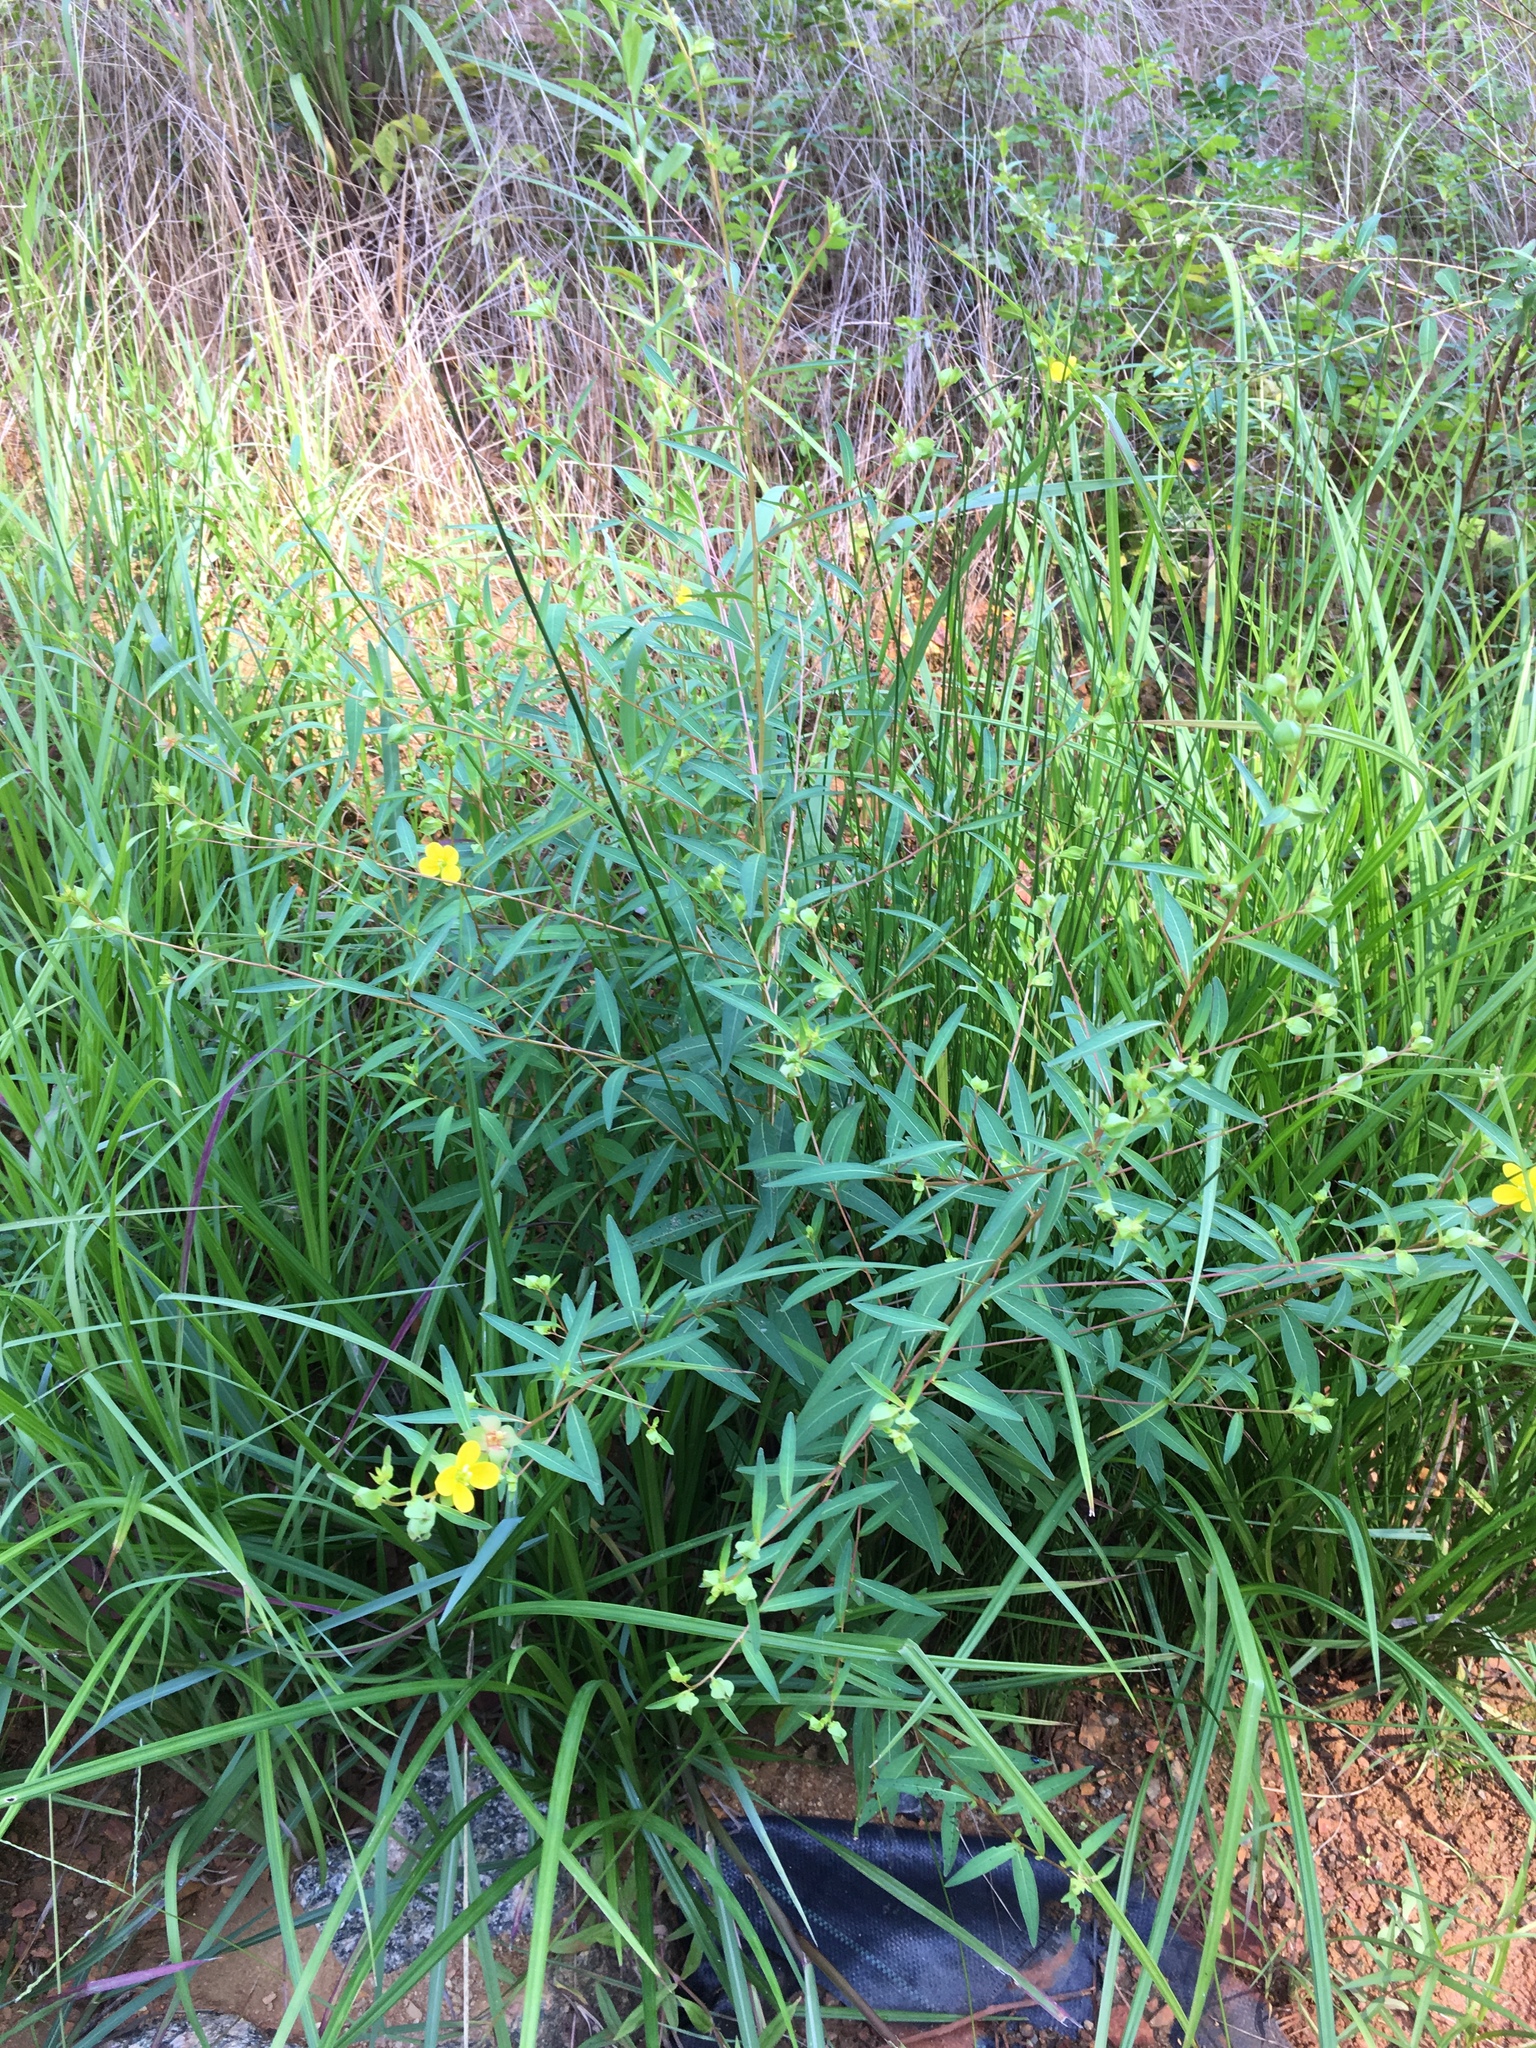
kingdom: Plantae
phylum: Tracheophyta
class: Magnoliopsida
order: Myrtales
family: Onagraceae
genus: Ludwigia
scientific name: Ludwigia alternifolia
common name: Rattlebox
